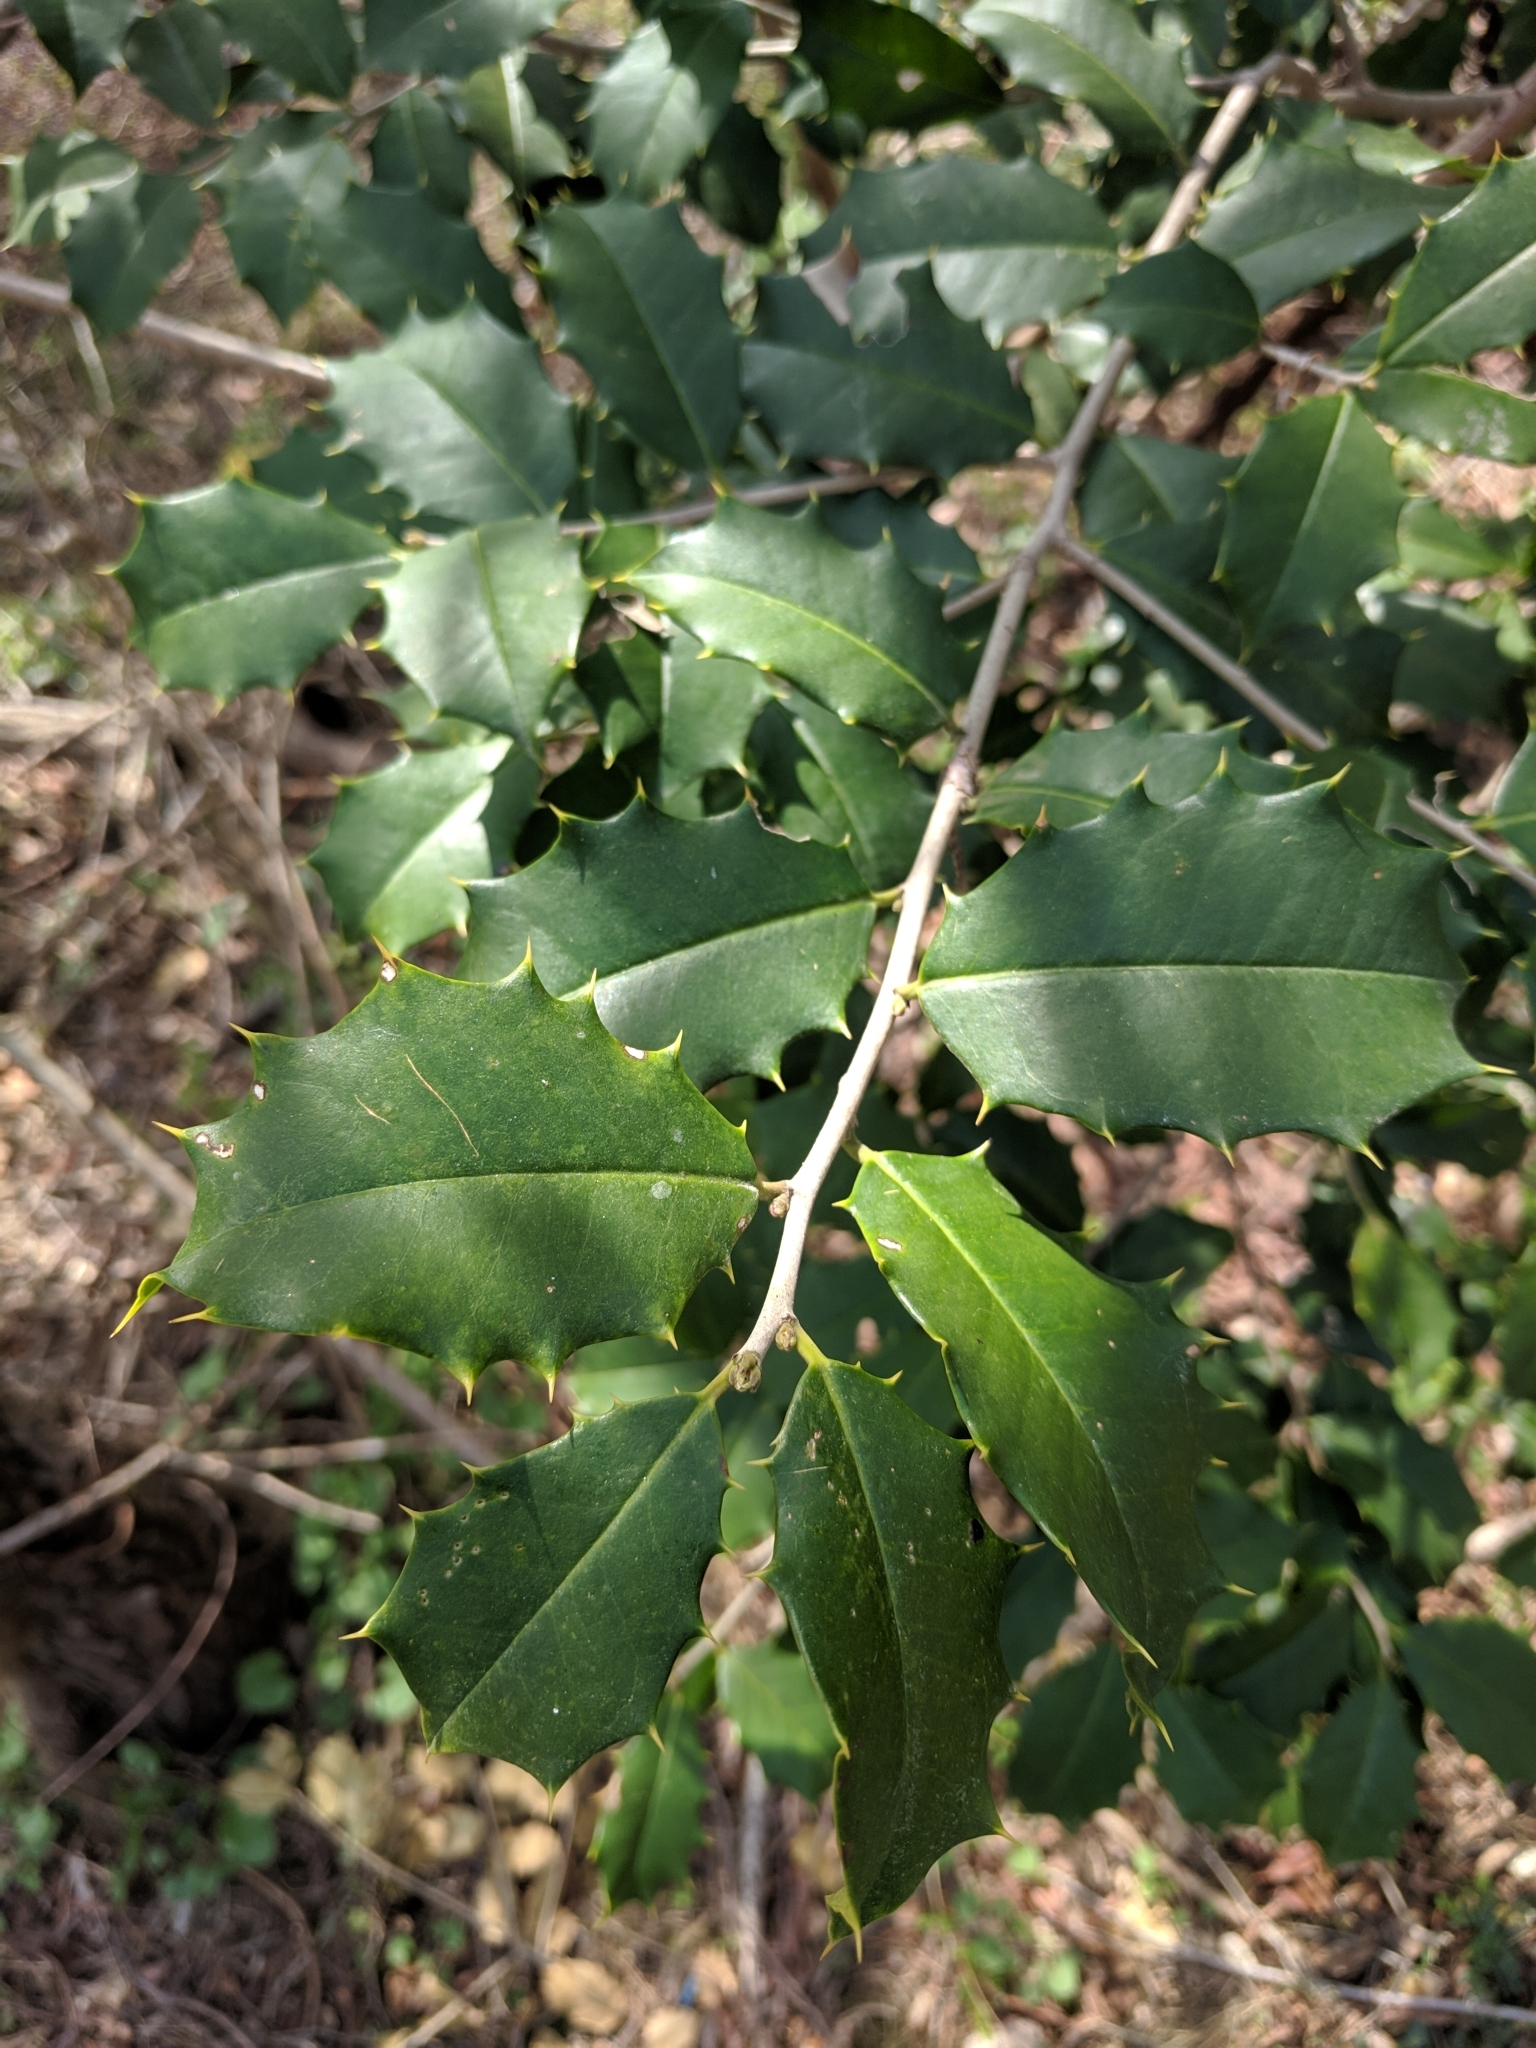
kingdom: Plantae
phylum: Tracheophyta
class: Magnoliopsida
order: Aquifoliales
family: Aquifoliaceae
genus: Ilex
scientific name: Ilex opaca
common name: American holly
